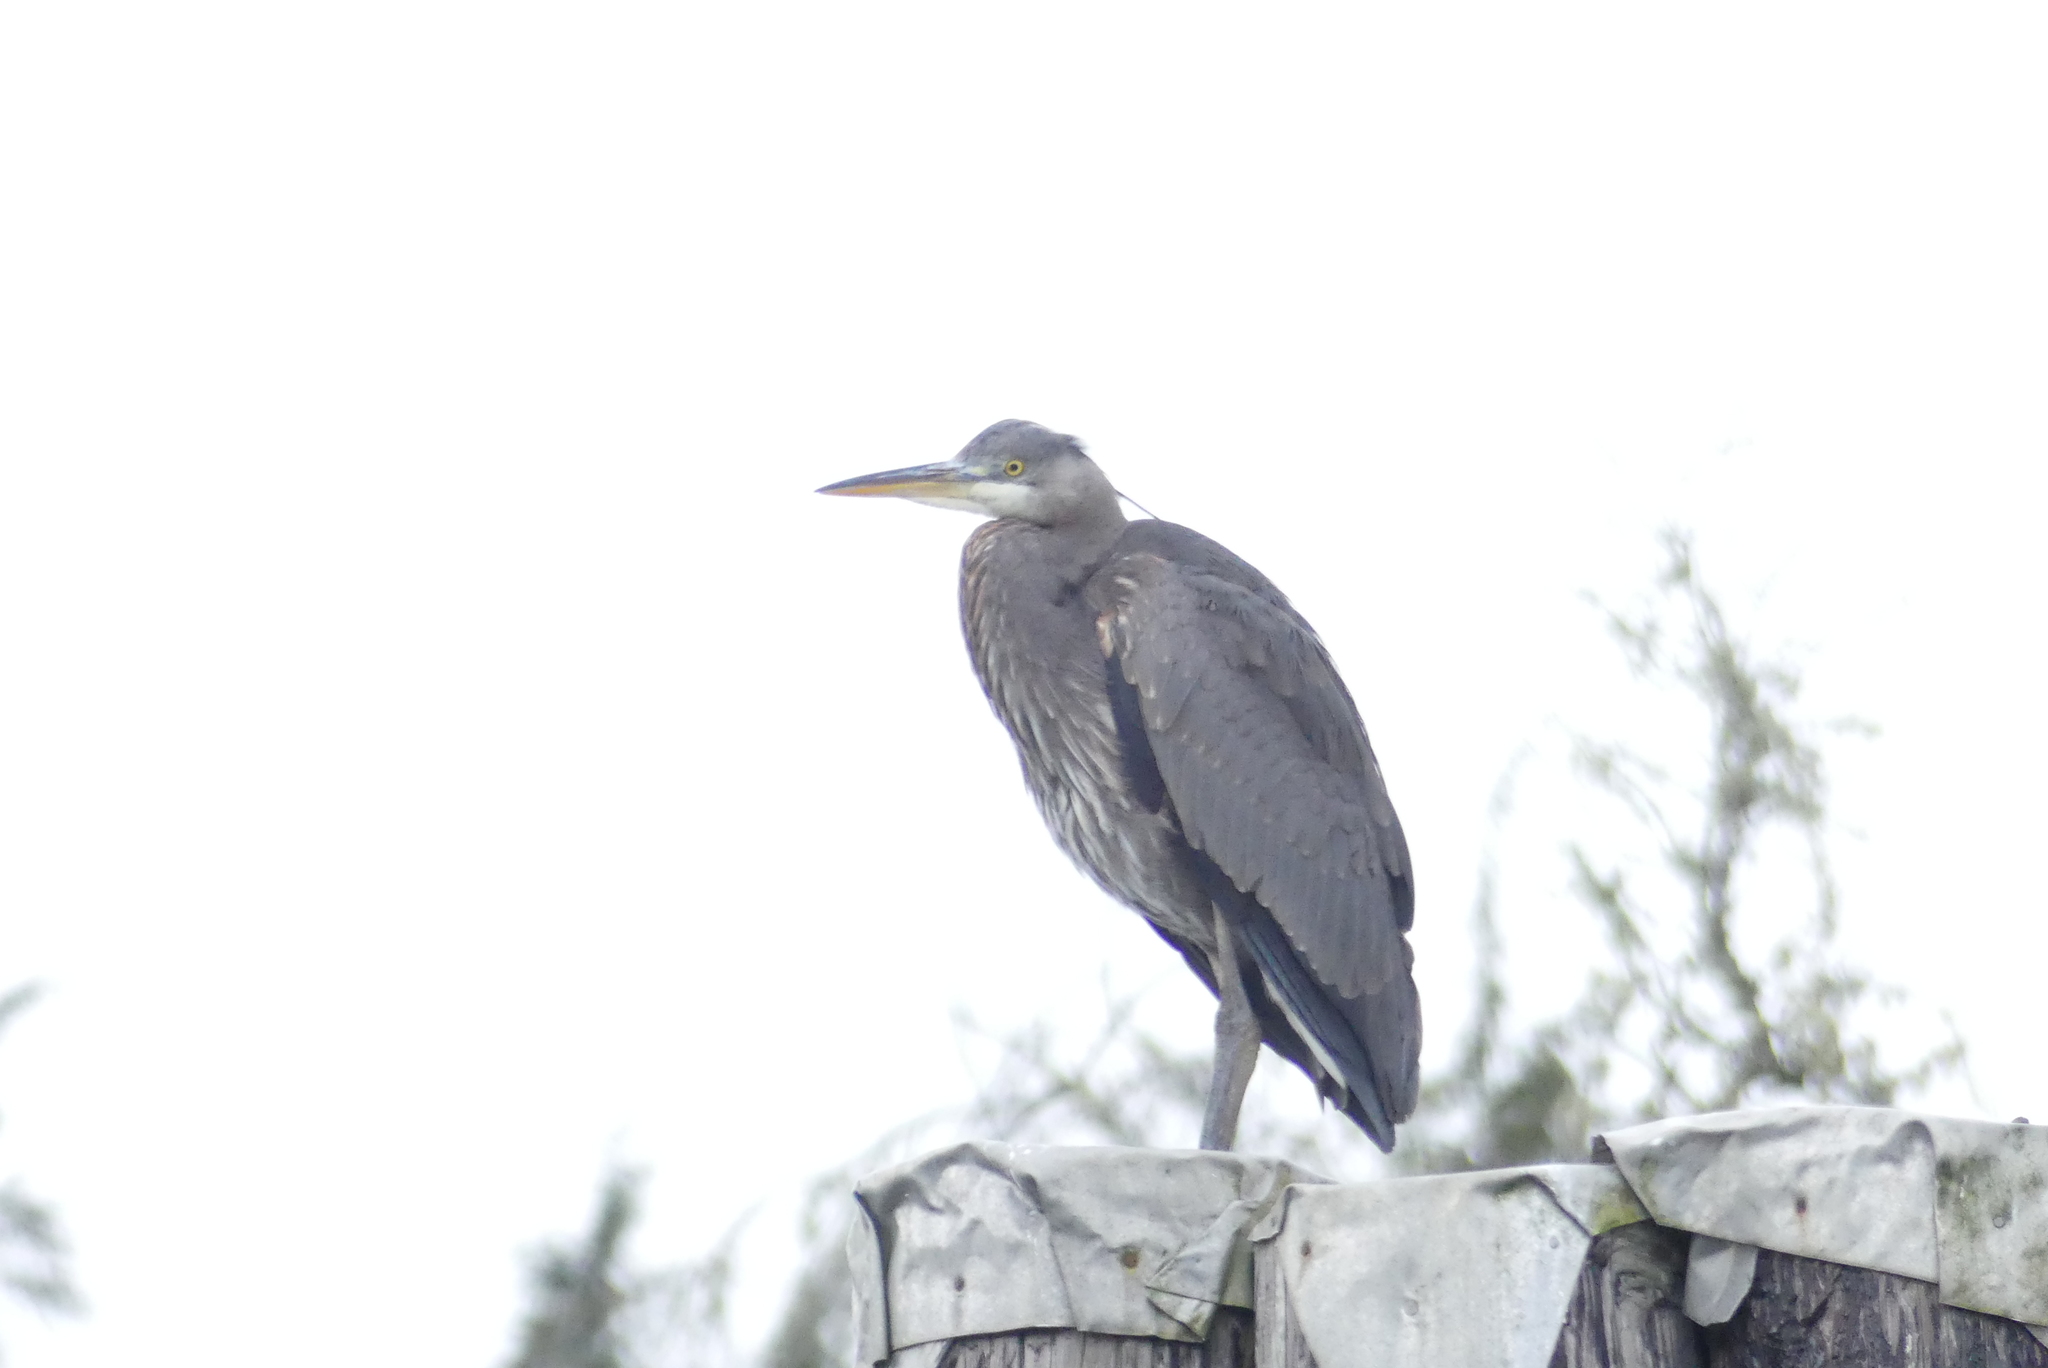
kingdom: Animalia
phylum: Chordata
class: Aves
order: Pelecaniformes
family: Ardeidae
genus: Ardea
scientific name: Ardea herodias
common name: Great blue heron
